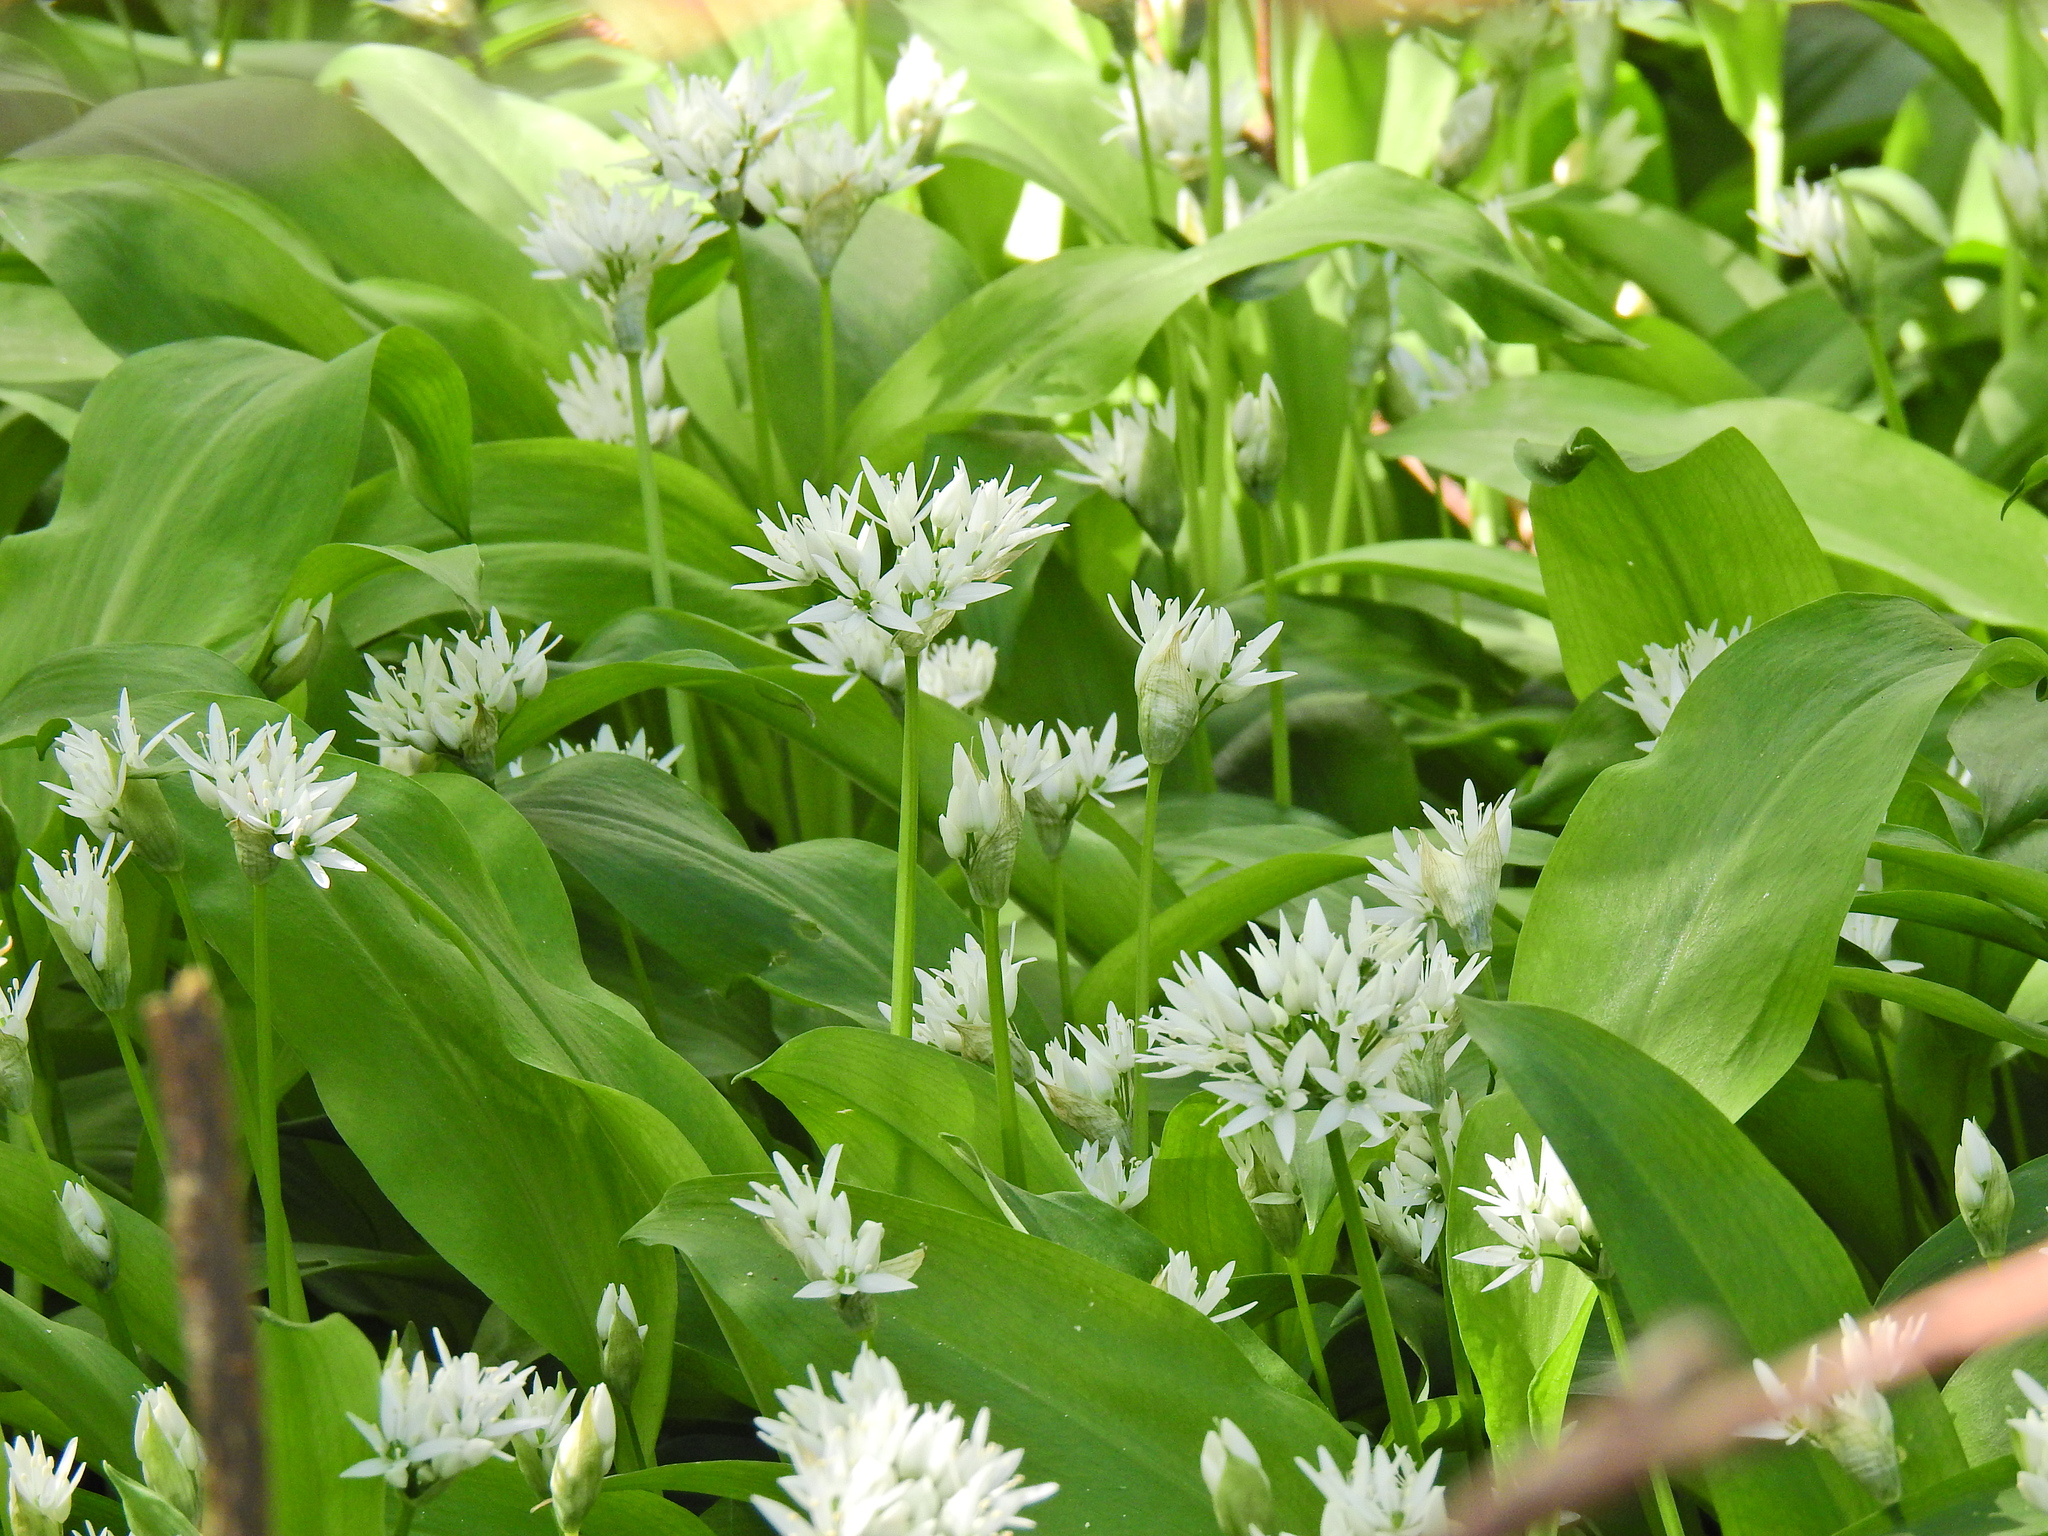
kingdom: Plantae
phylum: Tracheophyta
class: Liliopsida
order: Asparagales
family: Amaryllidaceae
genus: Allium
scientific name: Allium ursinum
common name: Ramsons
